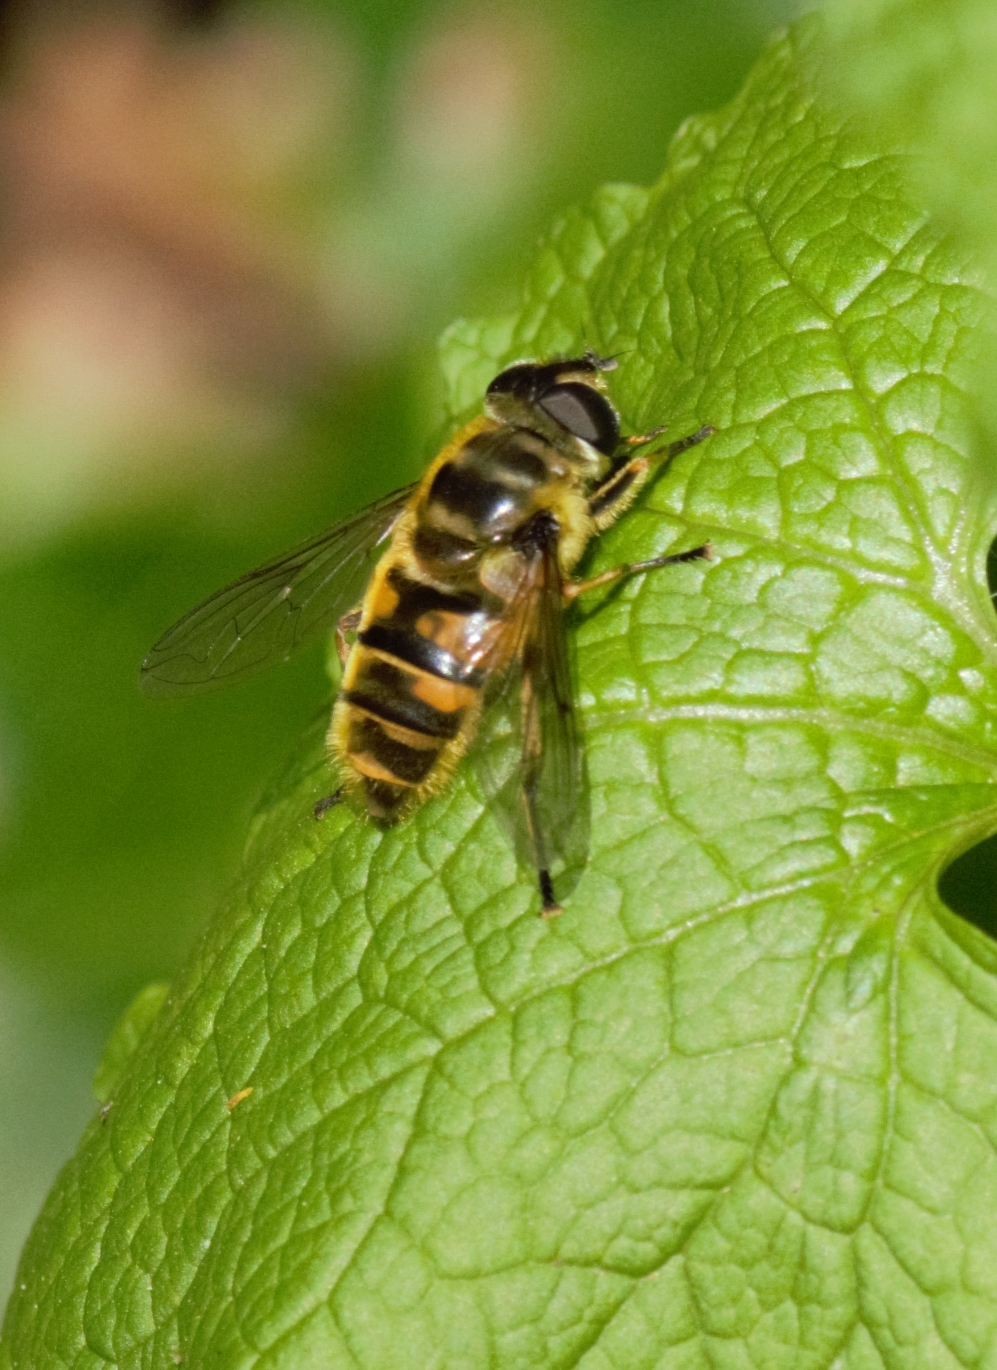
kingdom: Animalia
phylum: Arthropoda
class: Insecta
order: Diptera
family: Syrphidae
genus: Myathropa
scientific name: Myathropa florea
